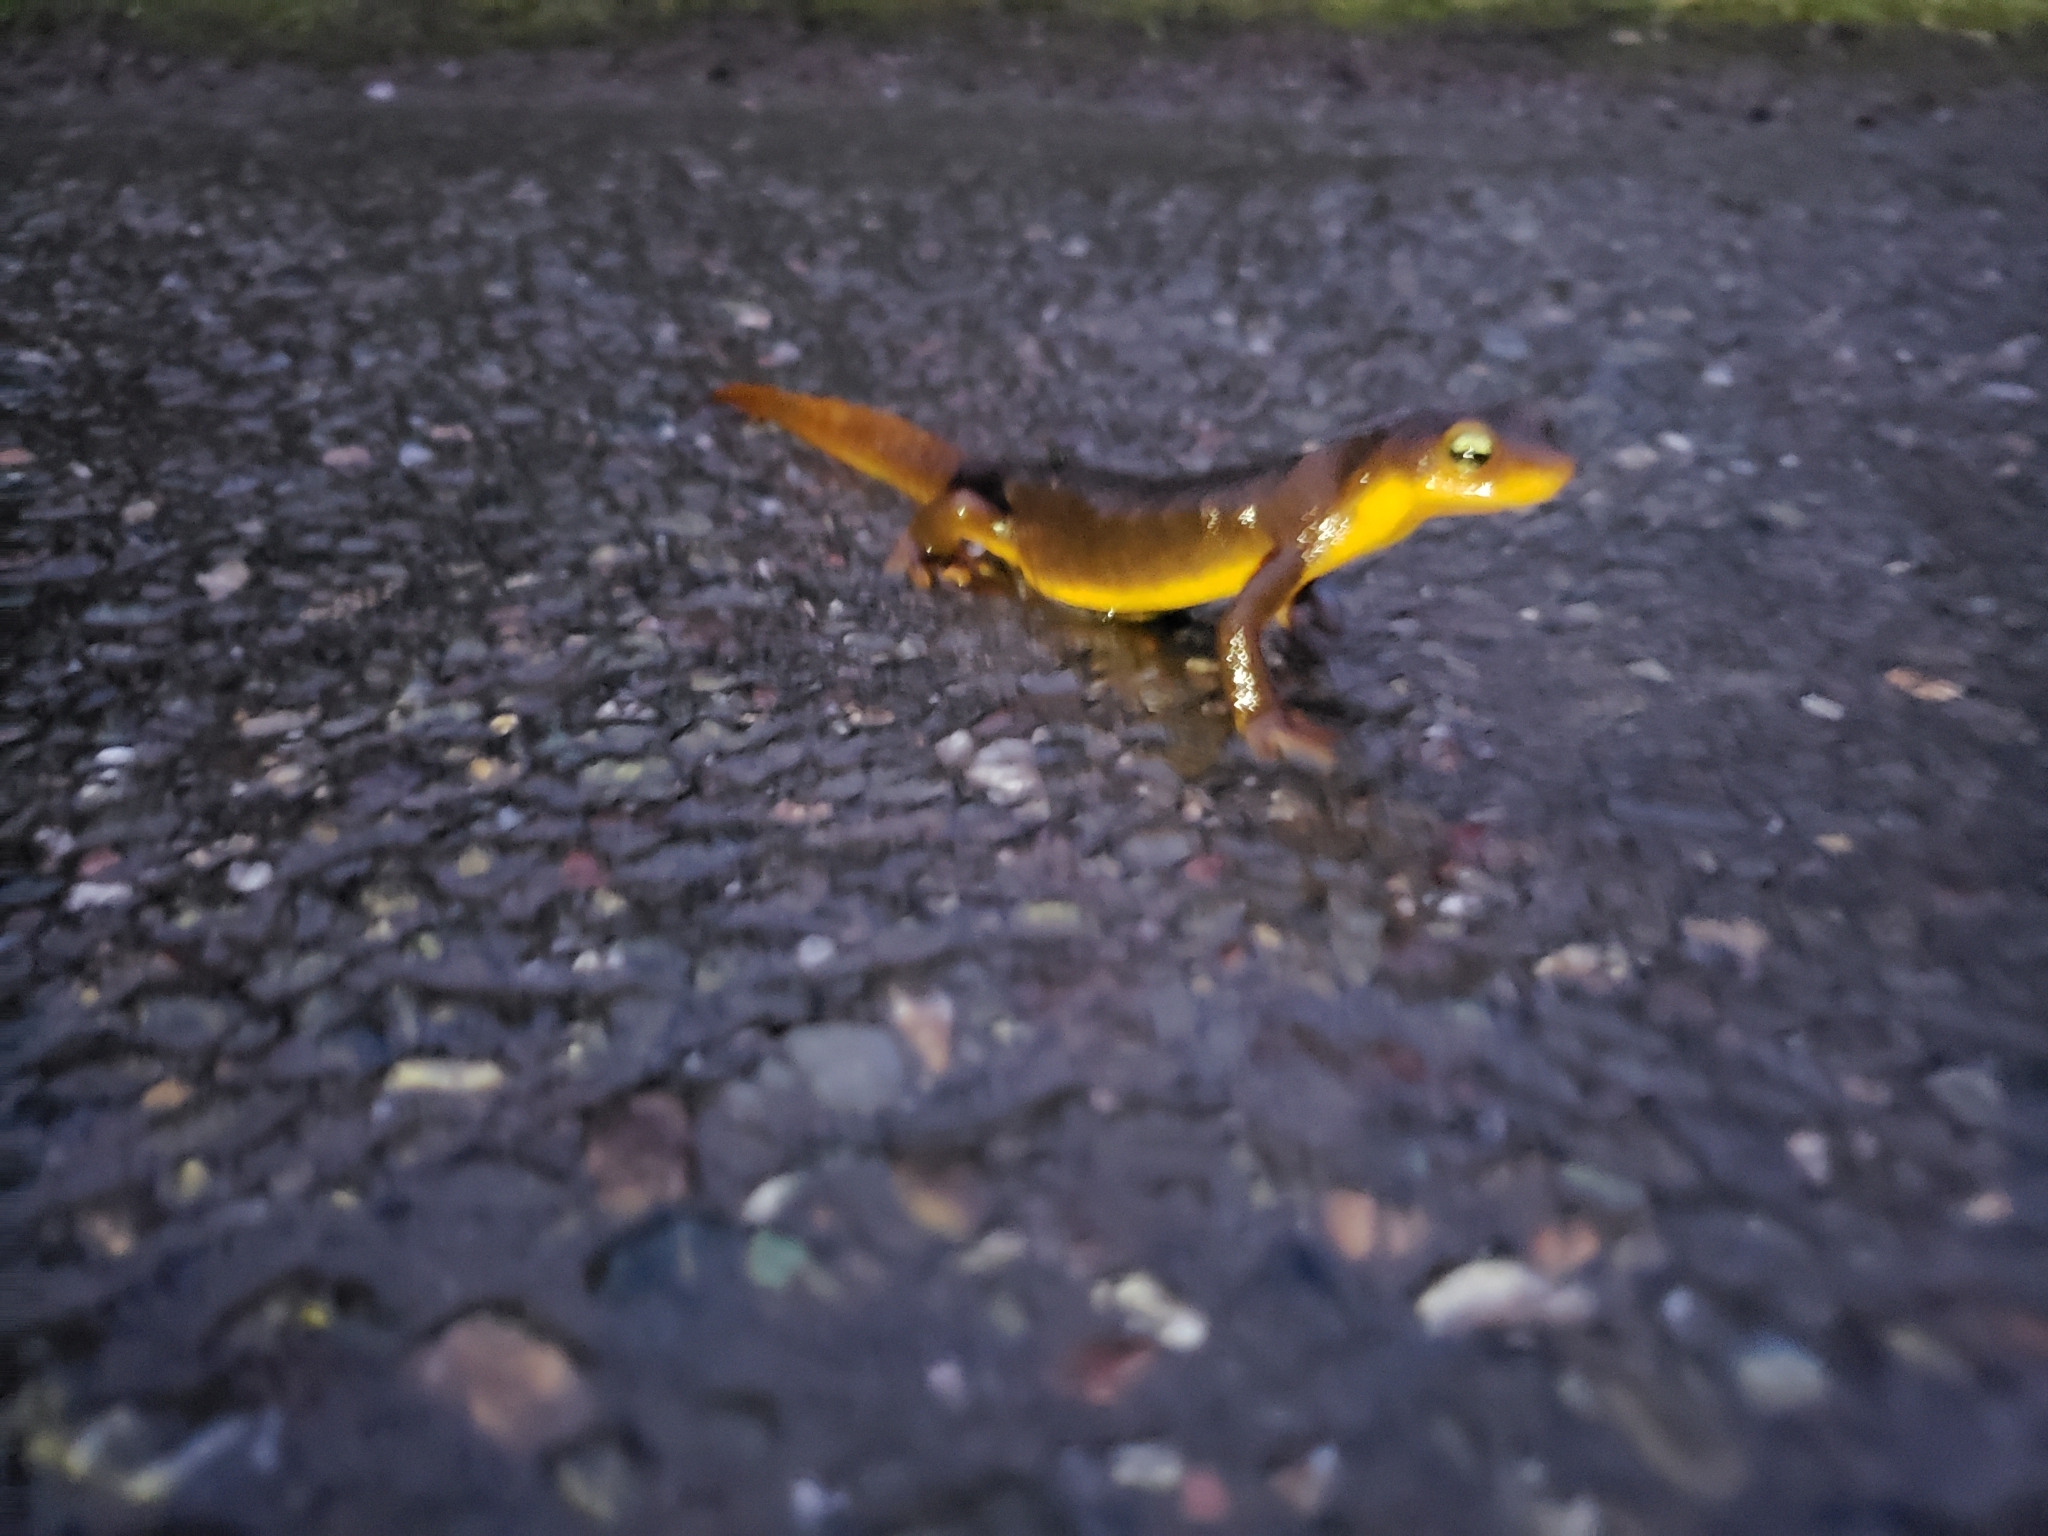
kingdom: Animalia
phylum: Chordata
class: Amphibia
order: Caudata
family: Salamandridae
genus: Taricha
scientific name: Taricha torosa
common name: California newt
